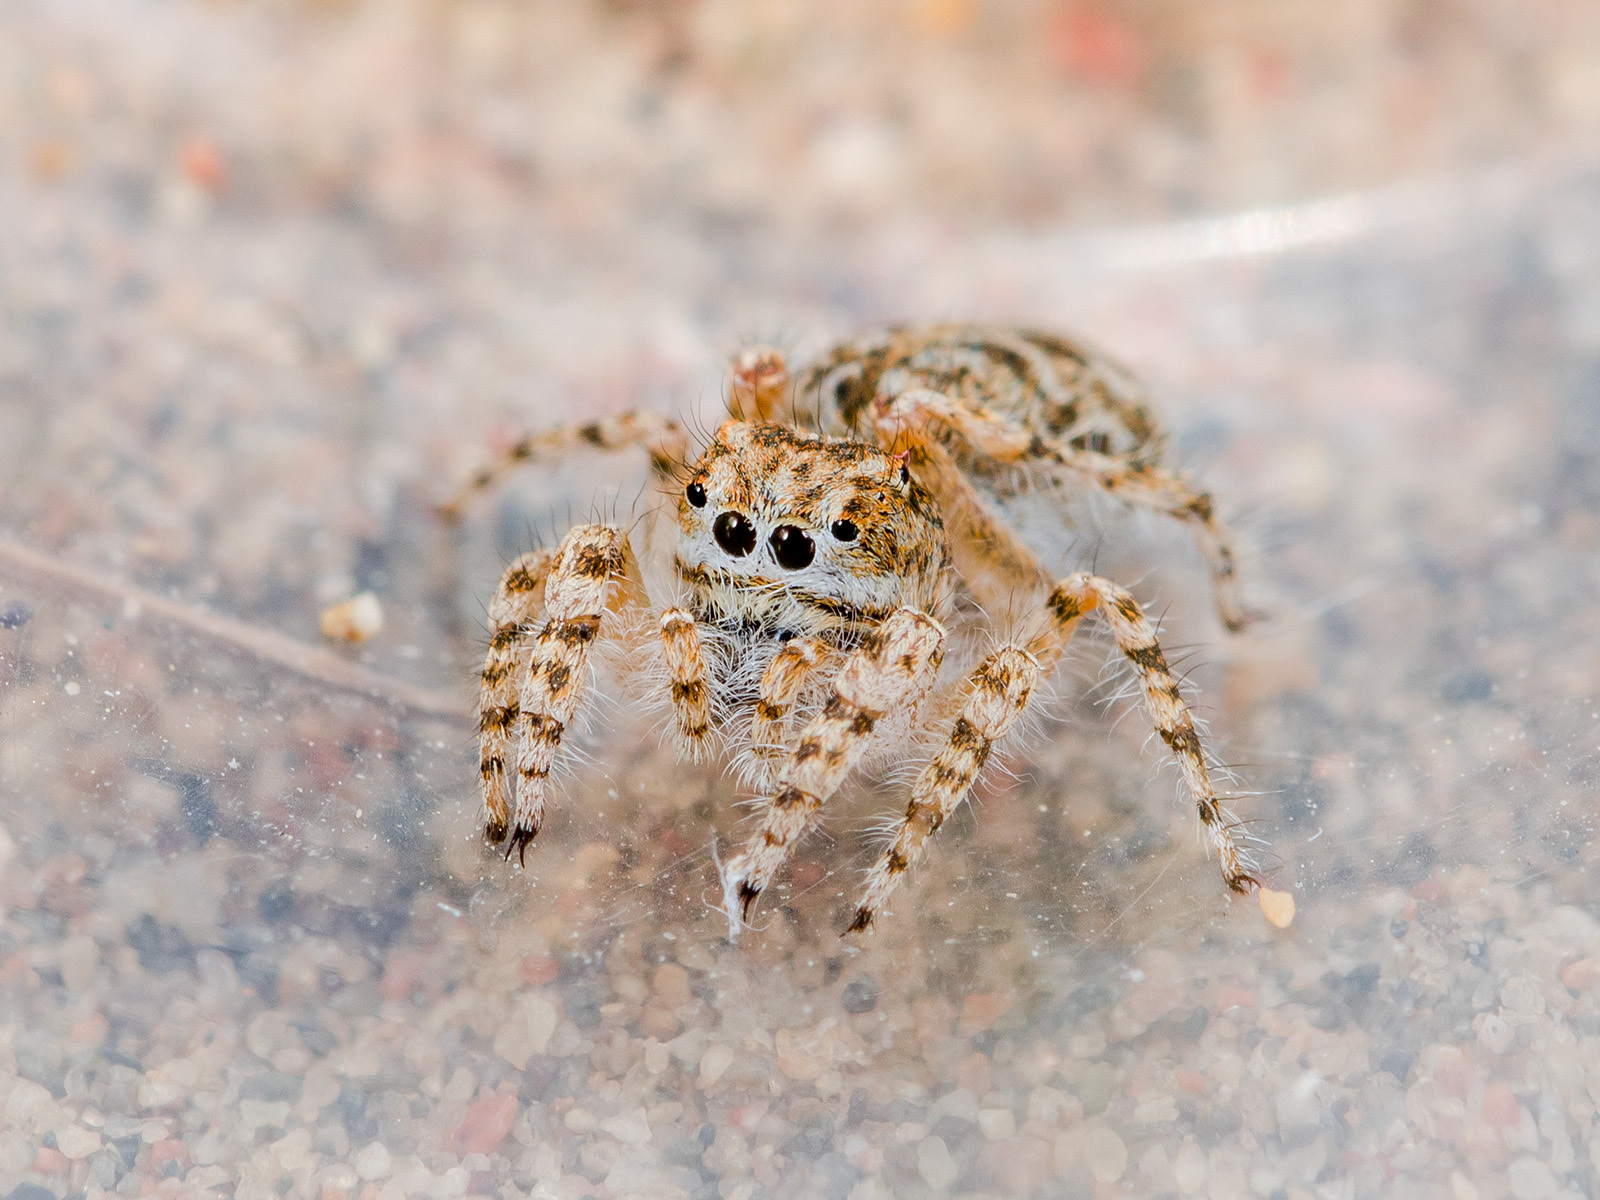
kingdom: Animalia
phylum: Arthropoda
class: Arachnida
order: Araneae
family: Salticidae
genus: Yllenus
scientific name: Yllenus turkestanicus
